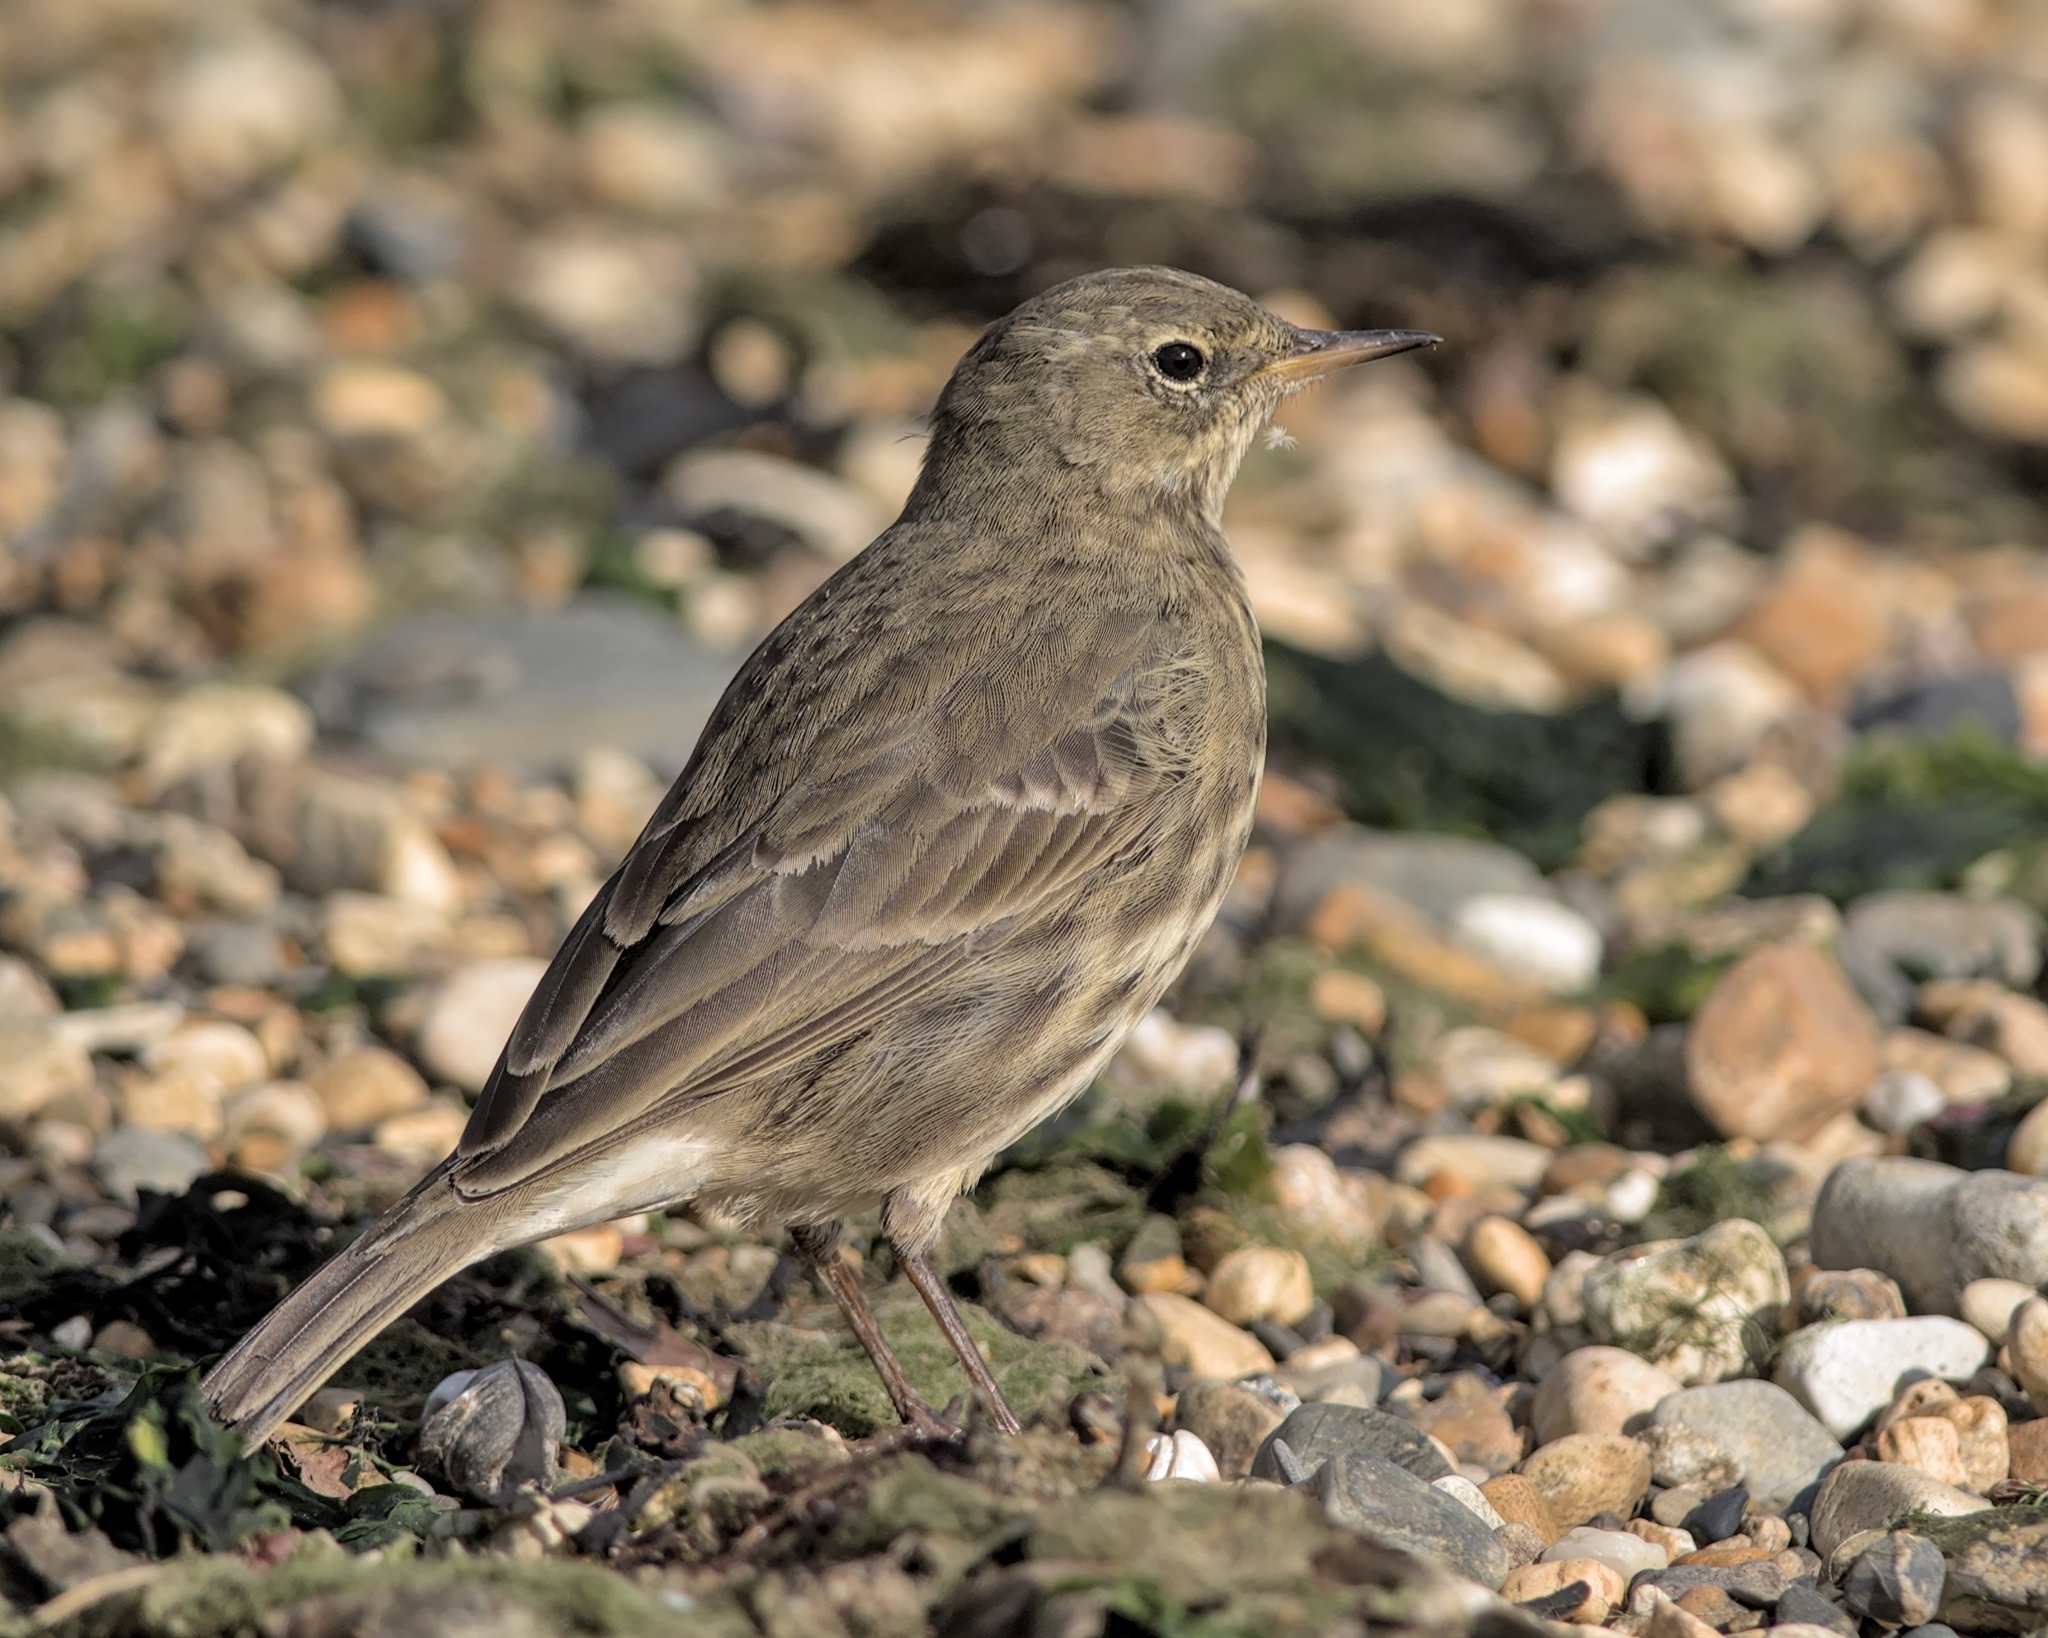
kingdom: Animalia
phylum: Chordata
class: Aves
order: Passeriformes
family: Motacillidae
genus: Anthus
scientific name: Anthus petrosus
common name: Eurasian rock pipit
